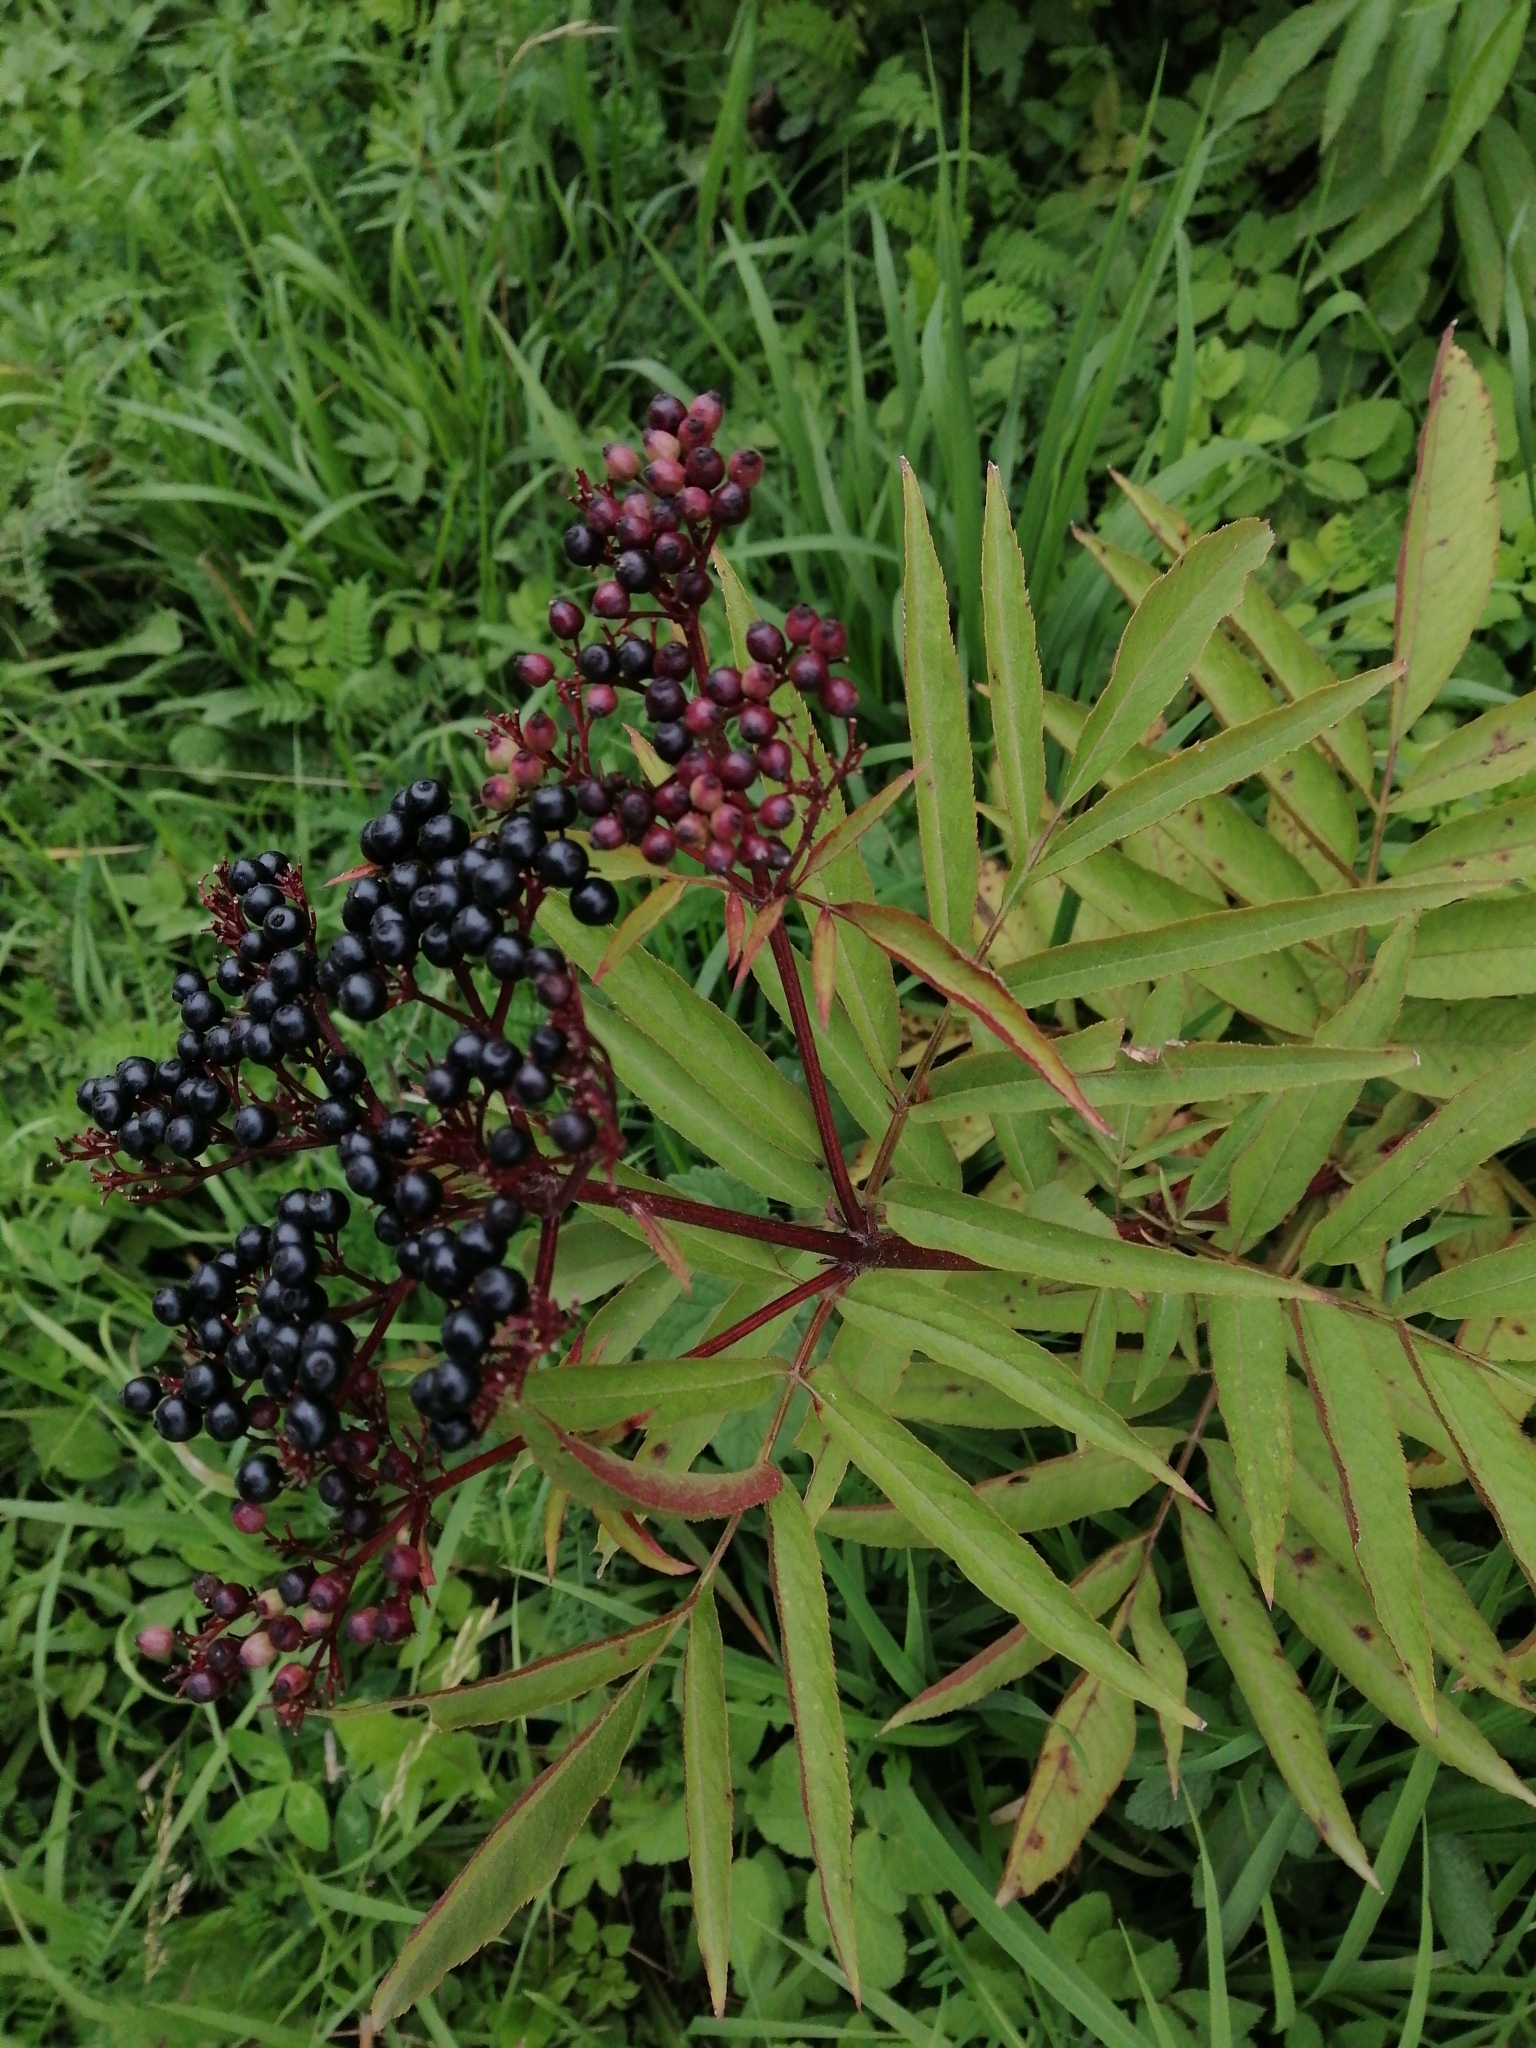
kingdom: Plantae
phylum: Tracheophyta
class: Magnoliopsida
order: Dipsacales
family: Viburnaceae
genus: Sambucus
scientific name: Sambucus ebulus
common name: Dwarf elder
